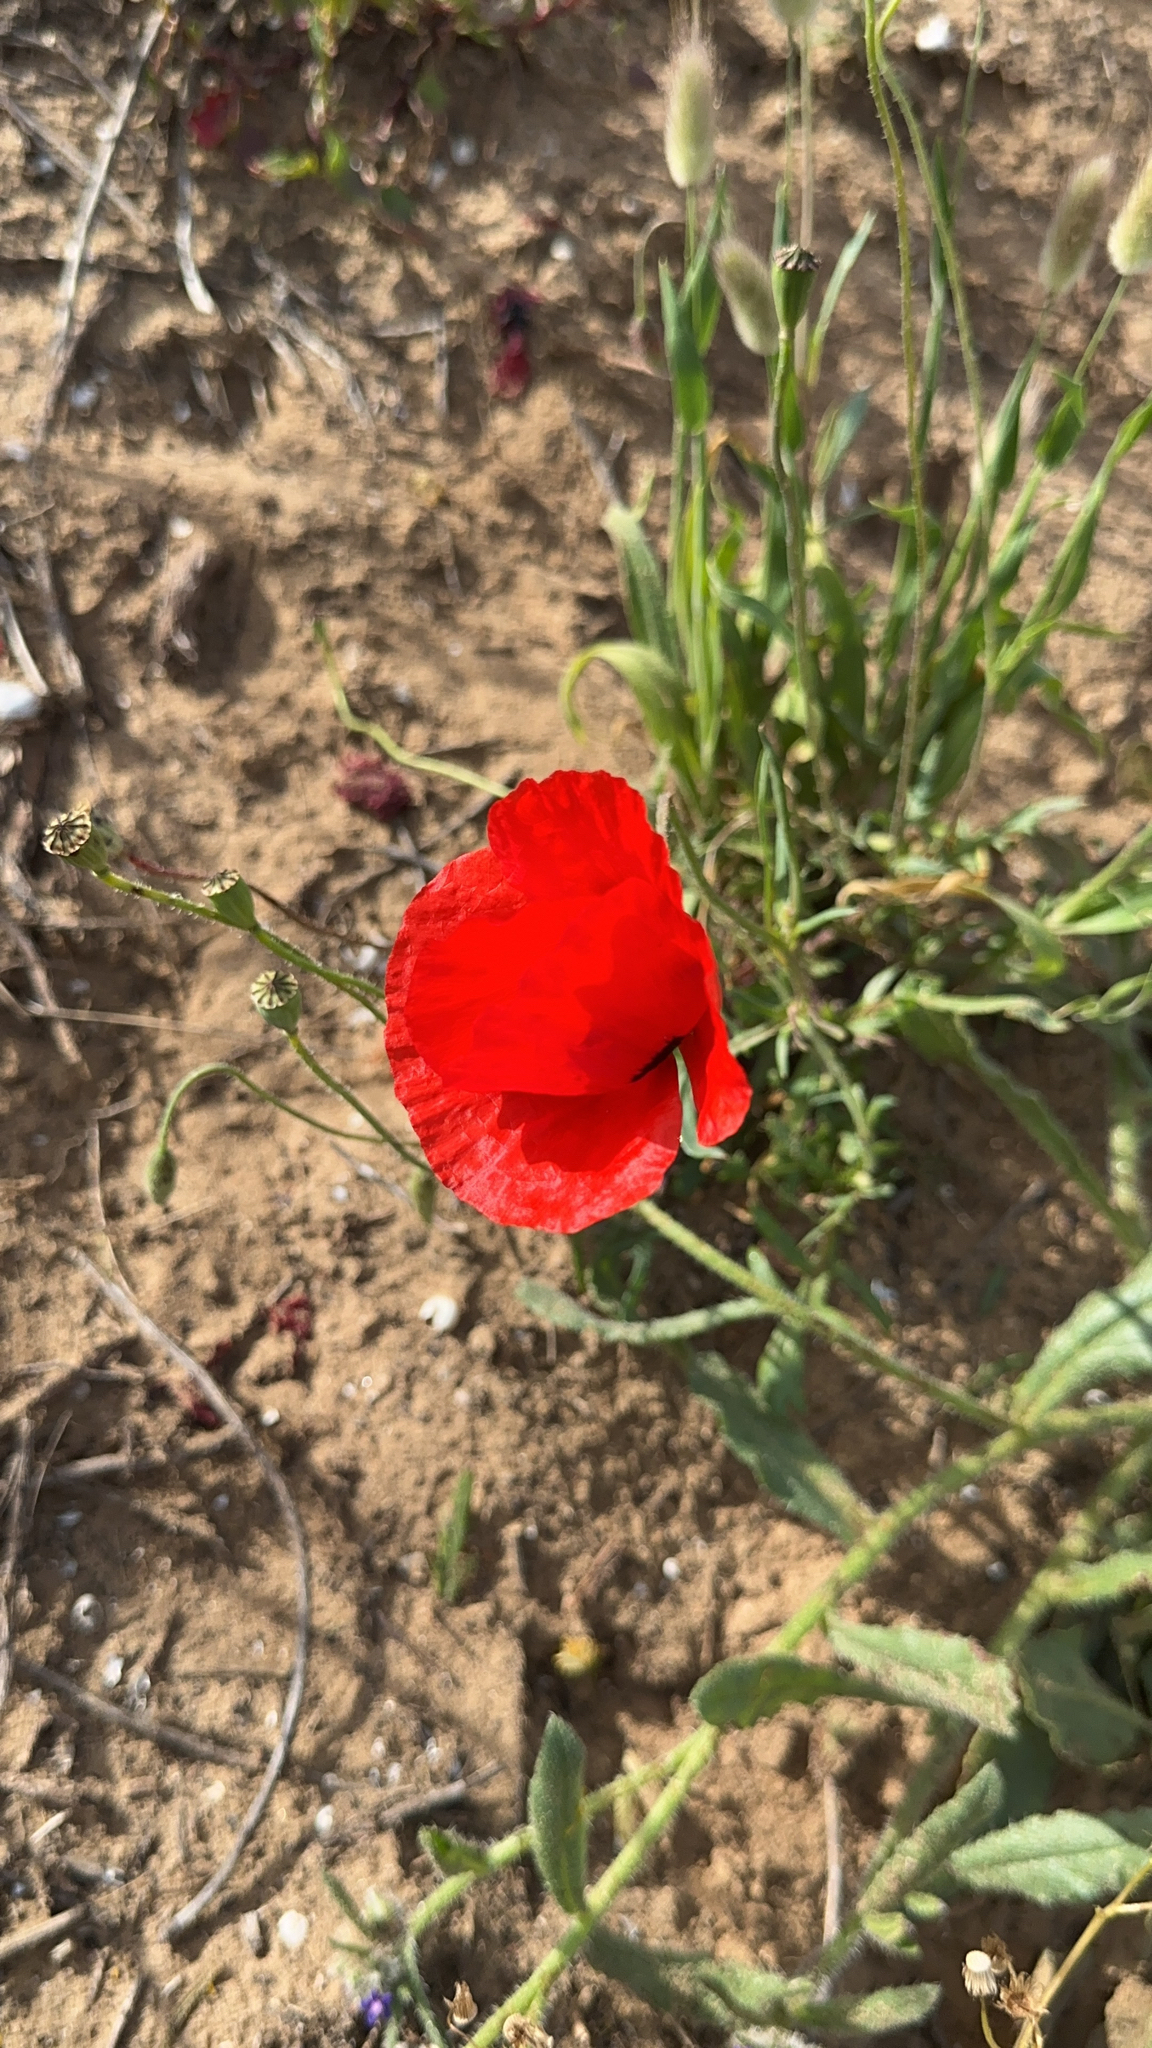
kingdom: Plantae
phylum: Tracheophyta
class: Magnoliopsida
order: Ranunculales
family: Papaveraceae
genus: Papaver
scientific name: Papaver umbonatum
